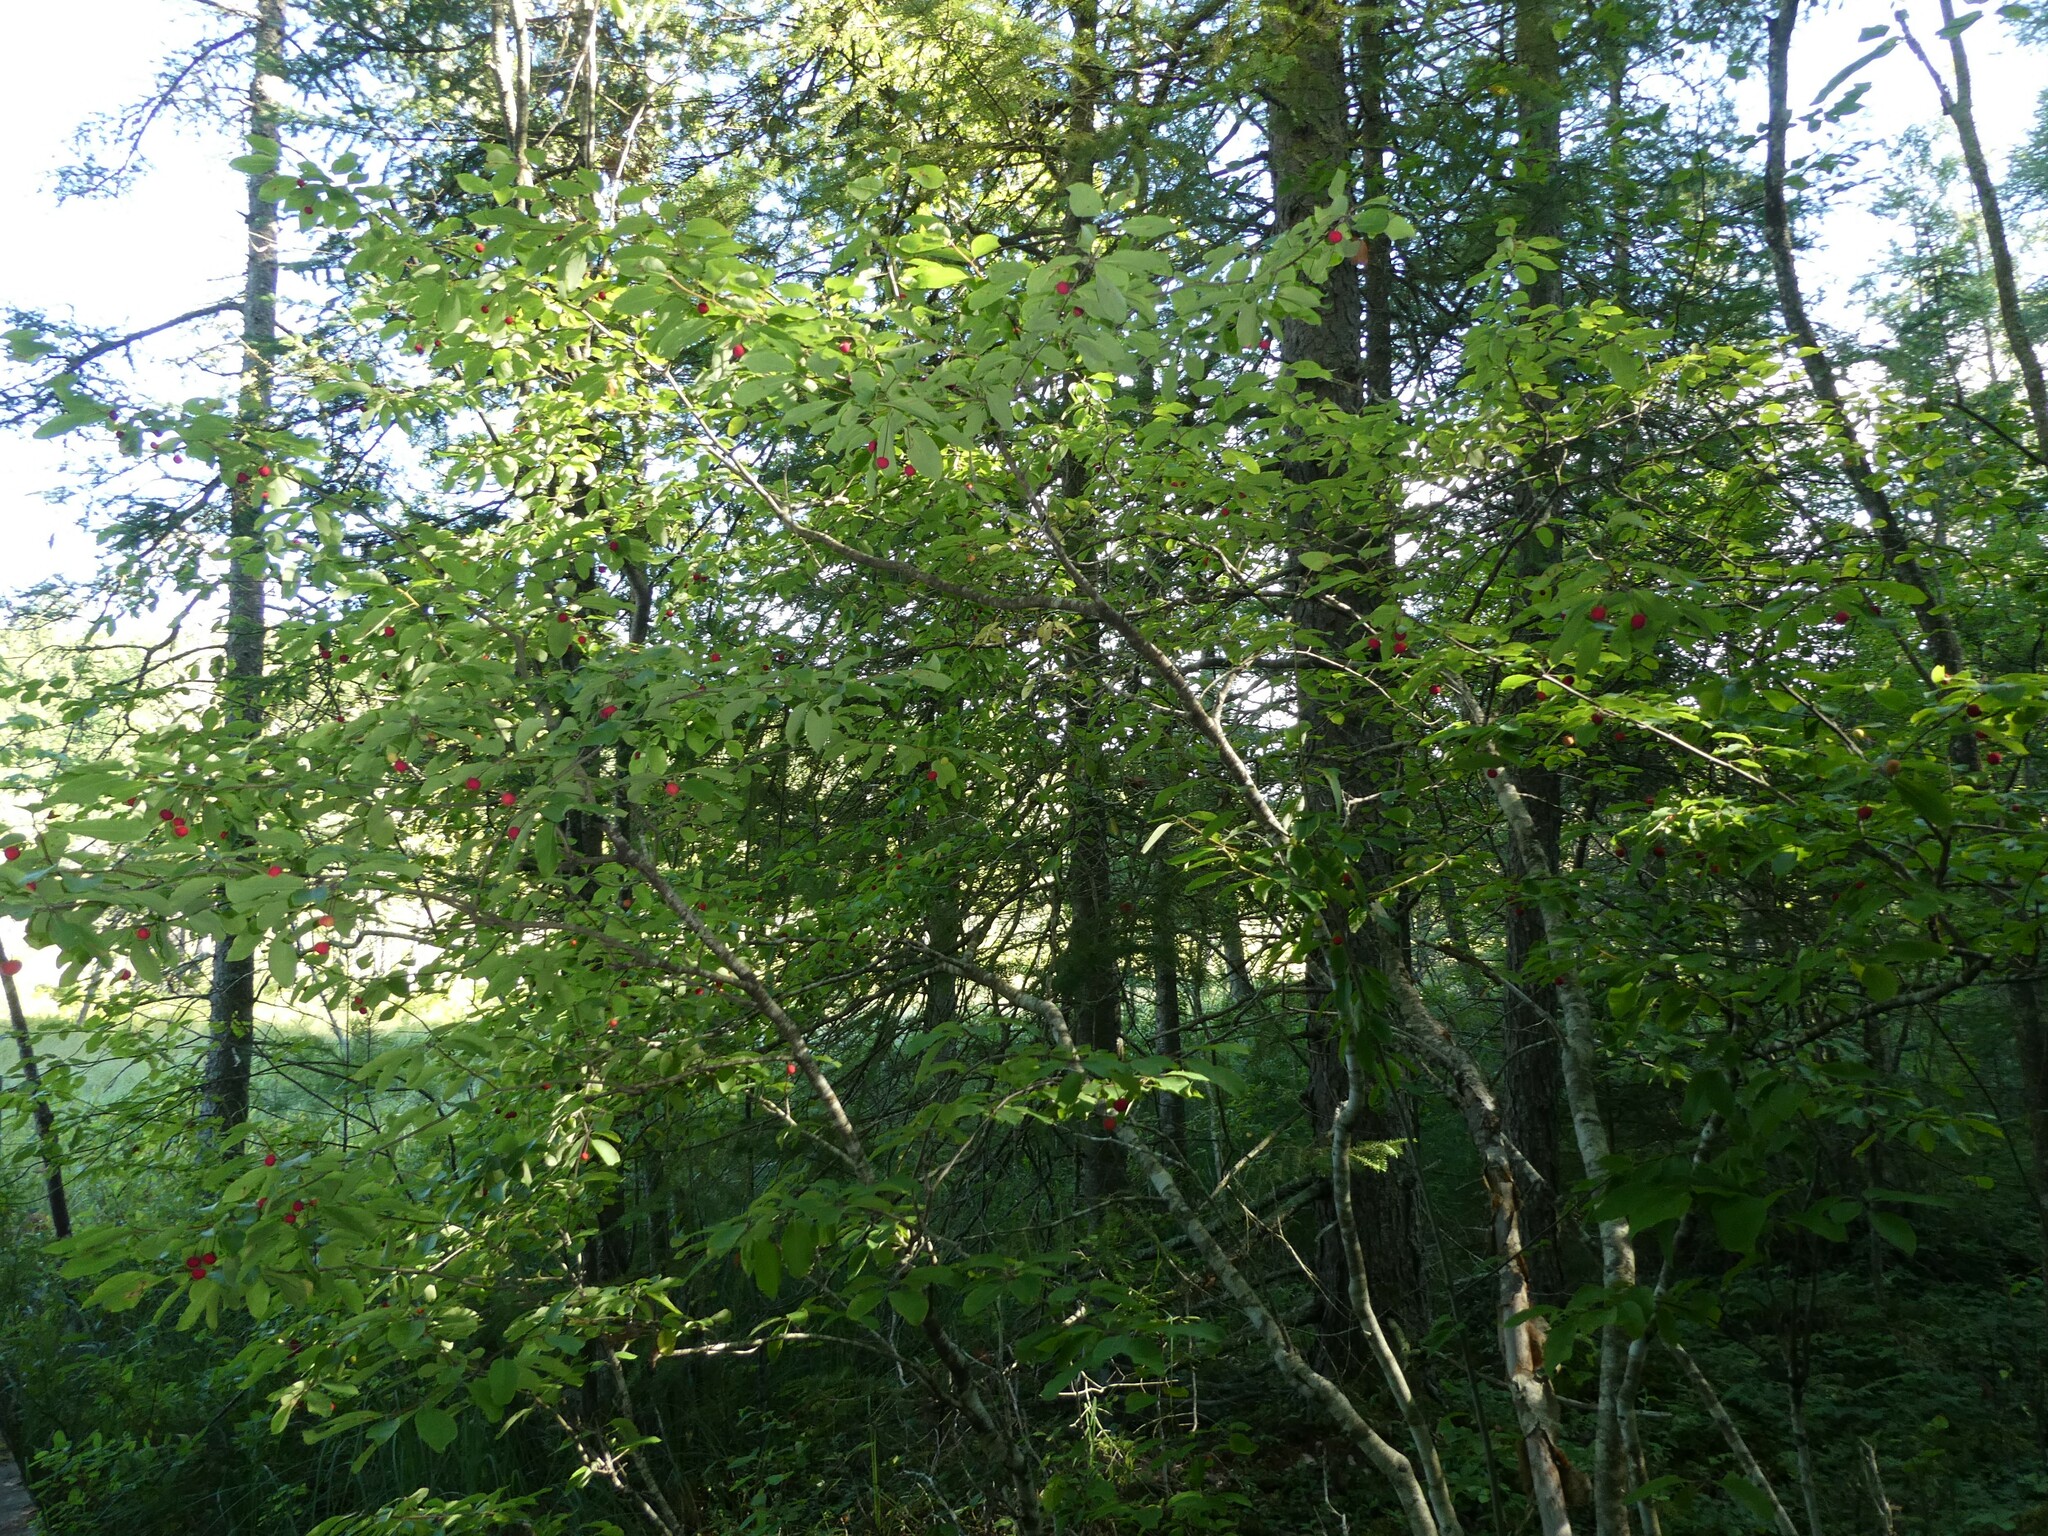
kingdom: Plantae
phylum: Tracheophyta
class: Magnoliopsida
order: Aquifoliales
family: Aquifoliaceae
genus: Ilex
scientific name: Ilex mucronata
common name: Catberry
